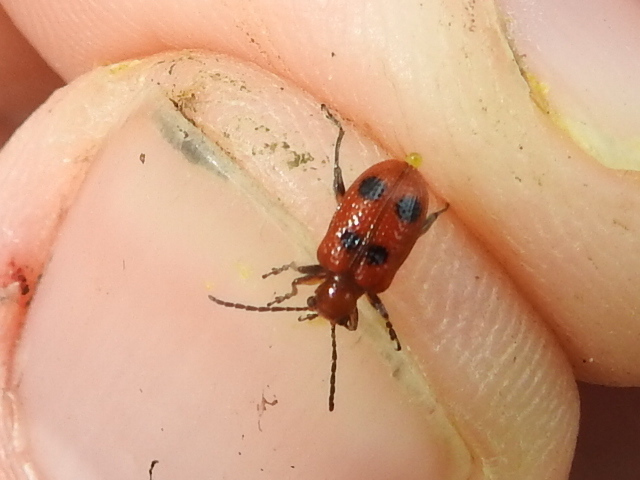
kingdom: Animalia
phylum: Arthropoda
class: Insecta
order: Coleoptera
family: Chrysomelidae
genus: Neolema
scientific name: Neolema quadriguttata
